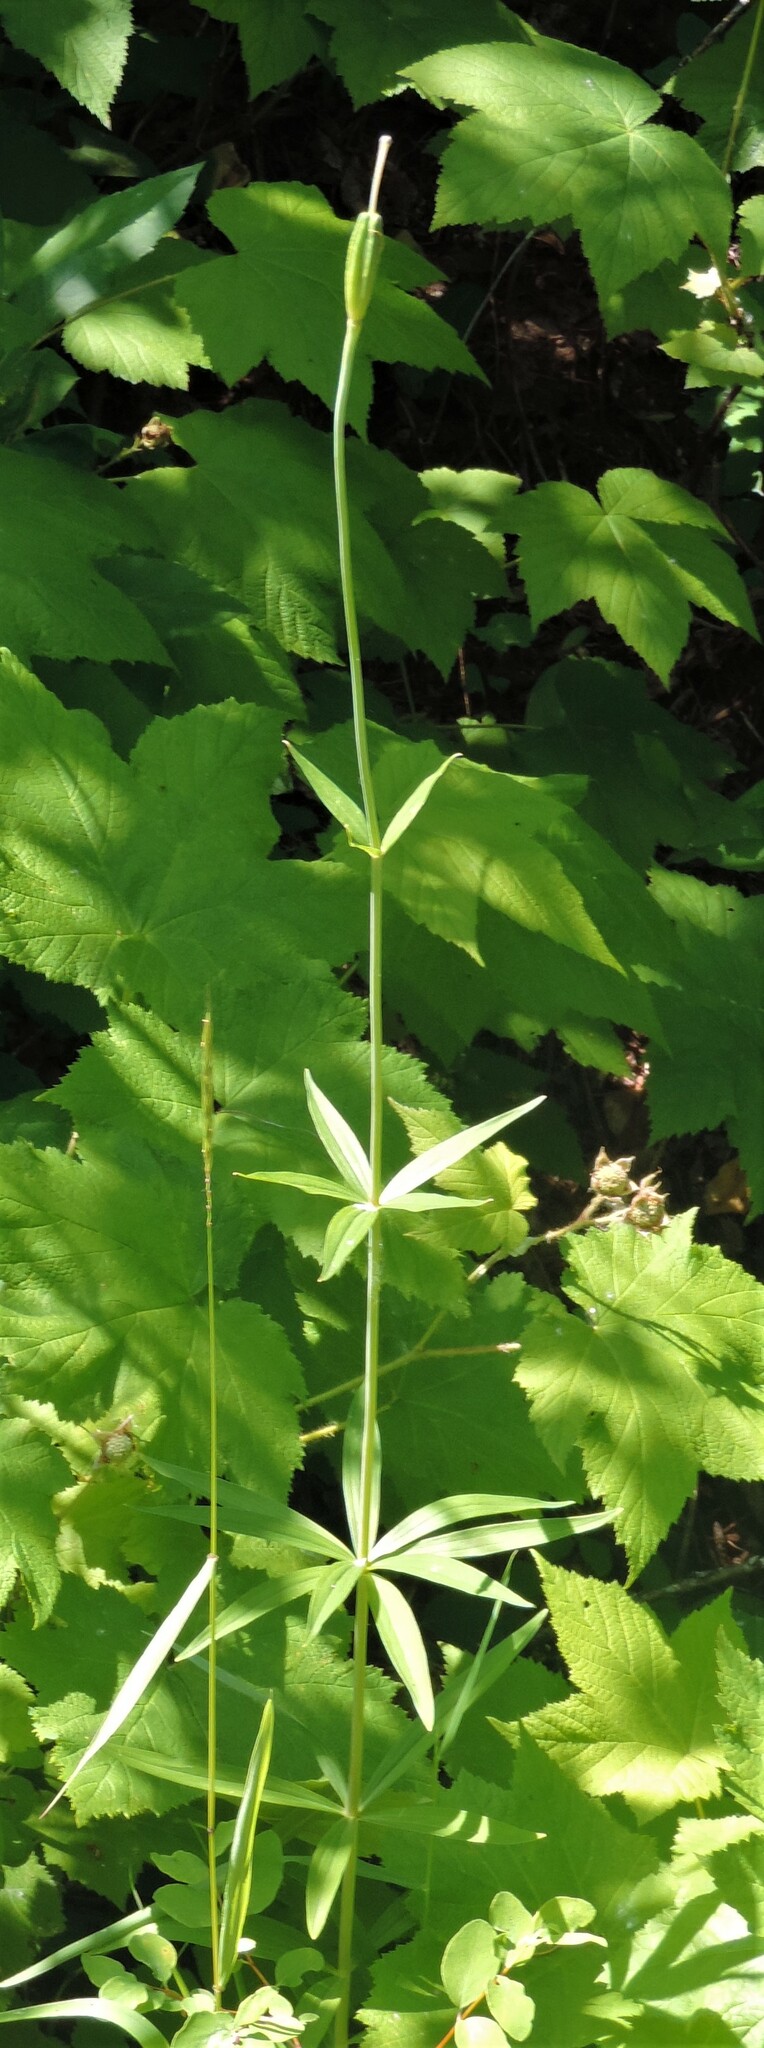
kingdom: Plantae
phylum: Tracheophyta
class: Liliopsida
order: Liliales
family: Liliaceae
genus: Lilium
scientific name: Lilium columbianum
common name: Columbia lily
